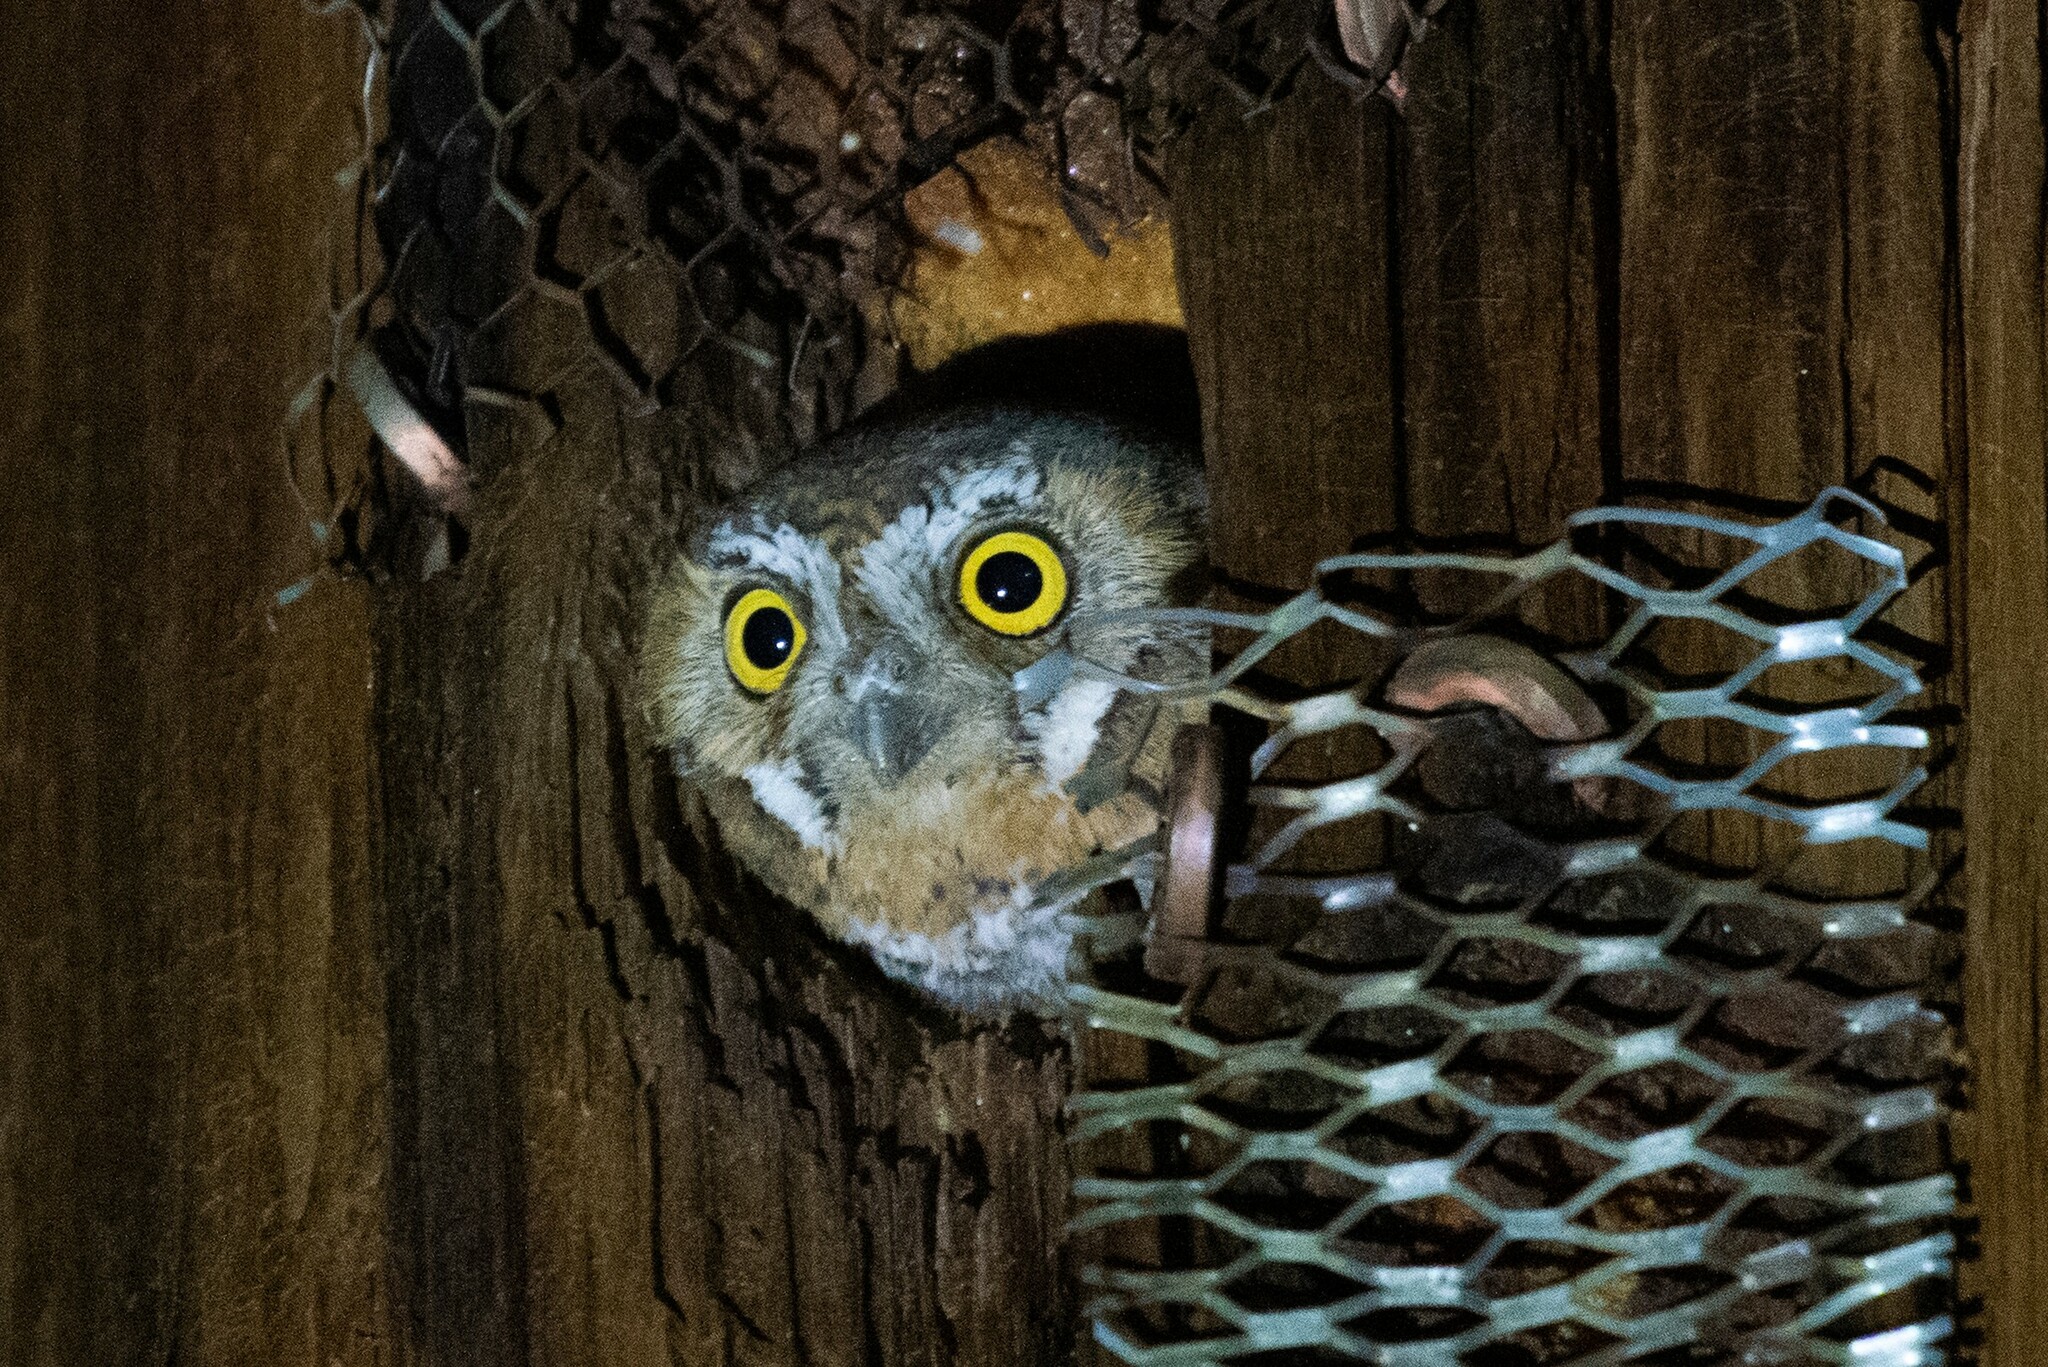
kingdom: Animalia
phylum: Chordata
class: Aves
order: Strigiformes
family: Strigidae
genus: Micrathene
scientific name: Micrathene whitneyi
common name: Elf owl
